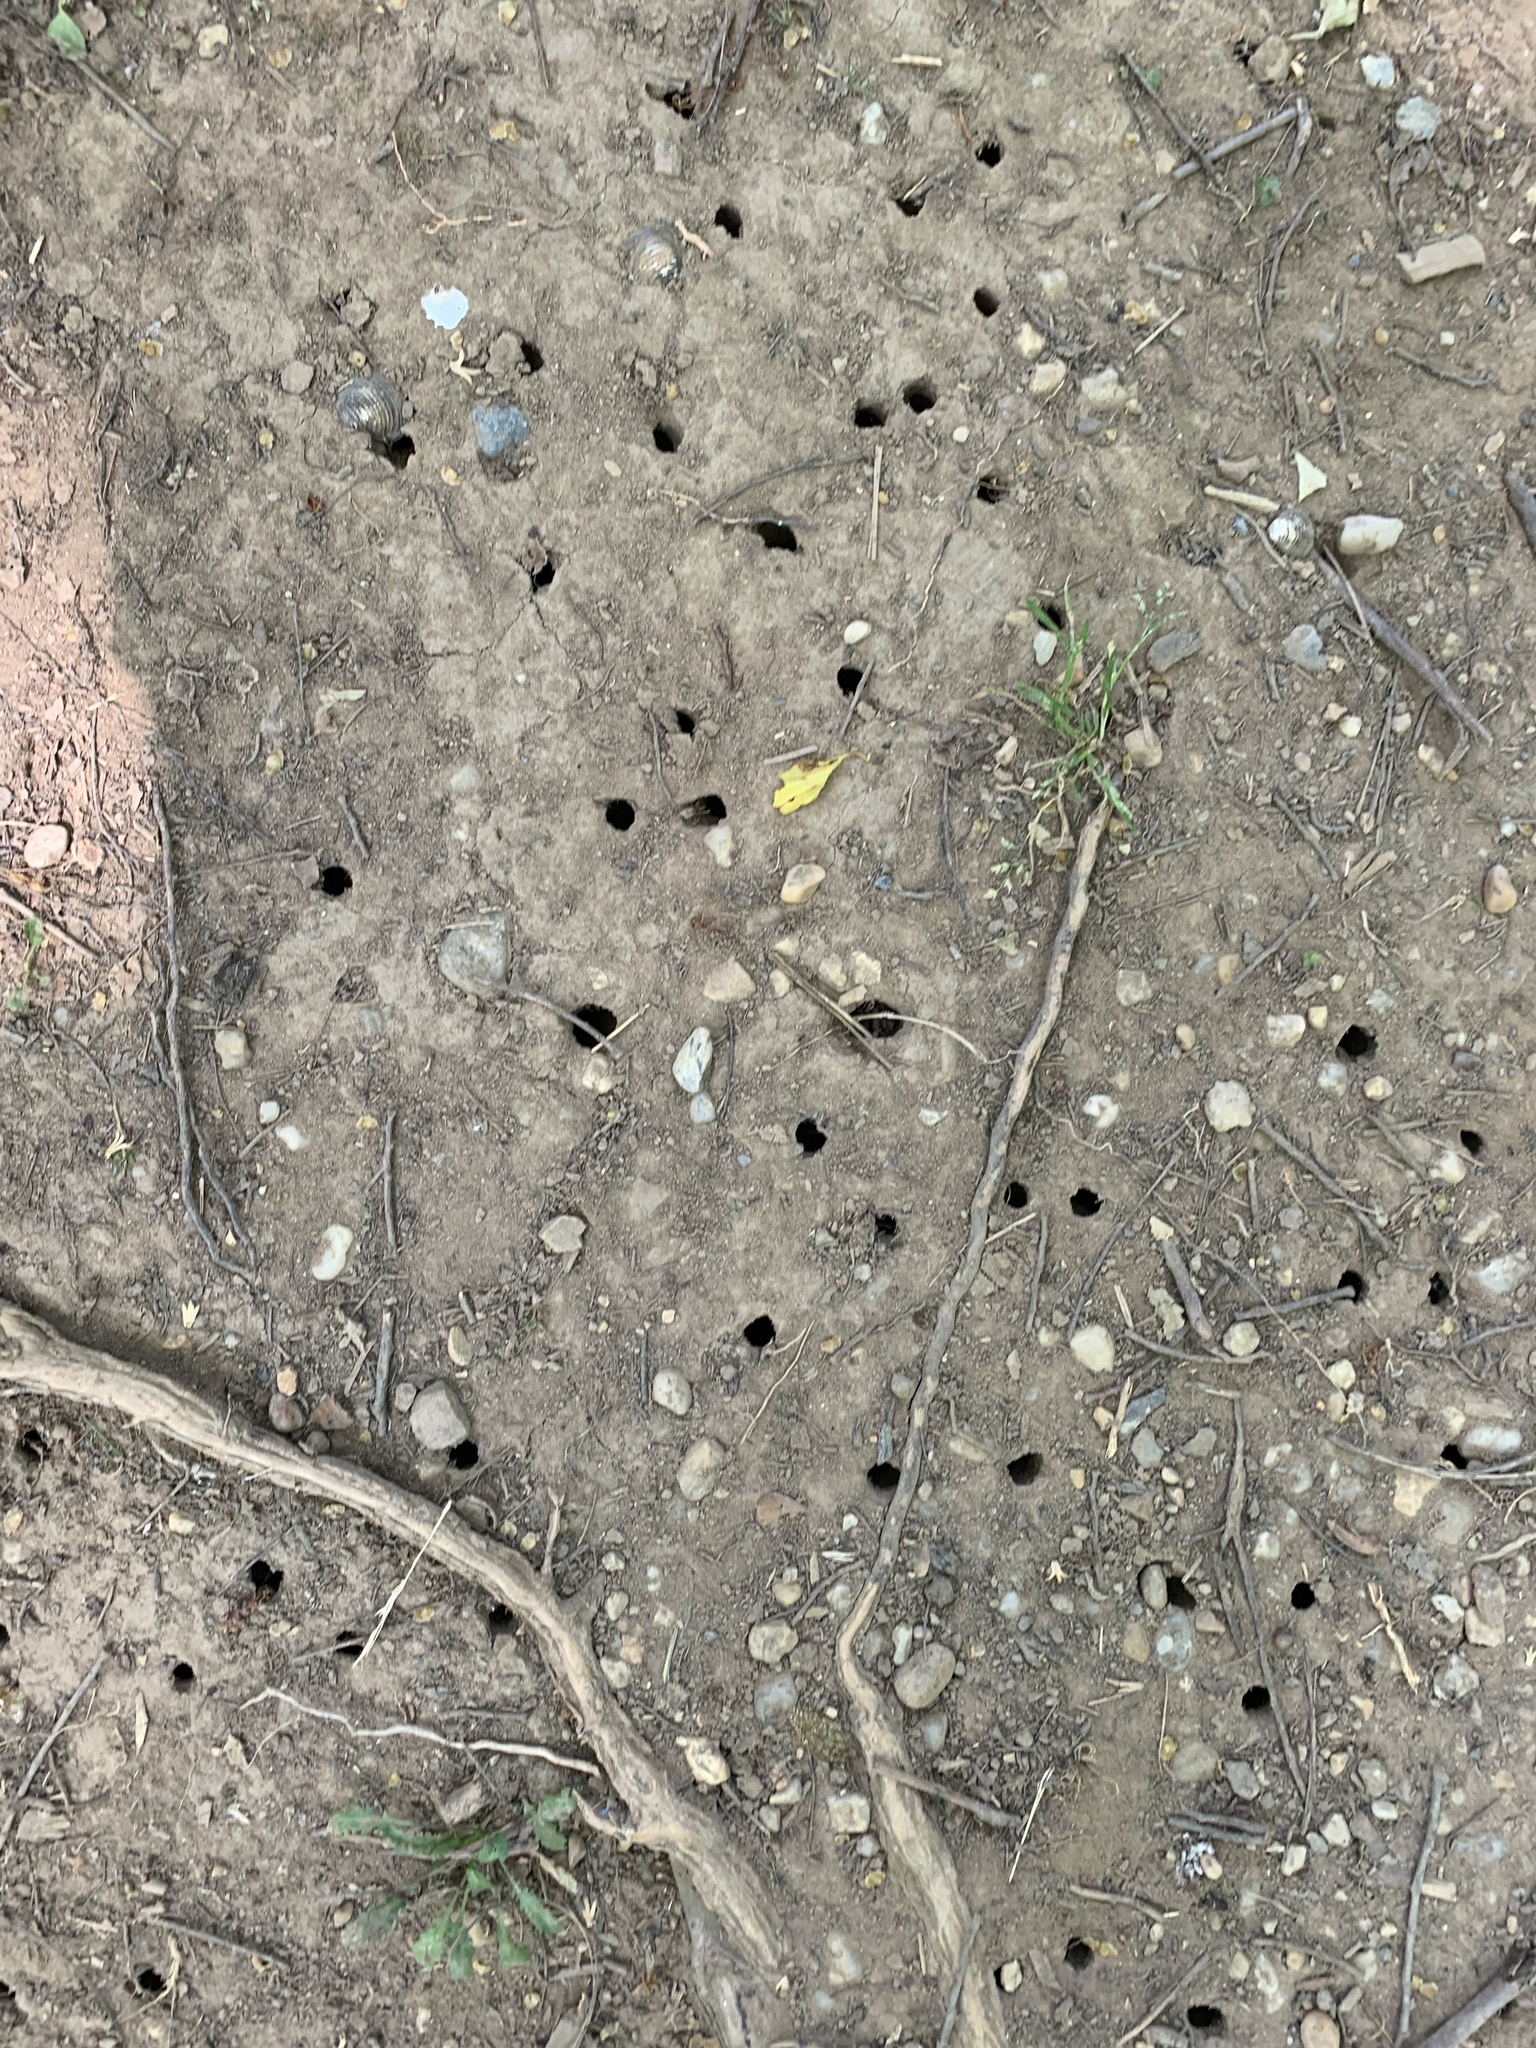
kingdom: Animalia
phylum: Arthropoda
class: Insecta
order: Hemiptera
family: Cicadidae
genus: Magicicada
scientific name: Magicicada
